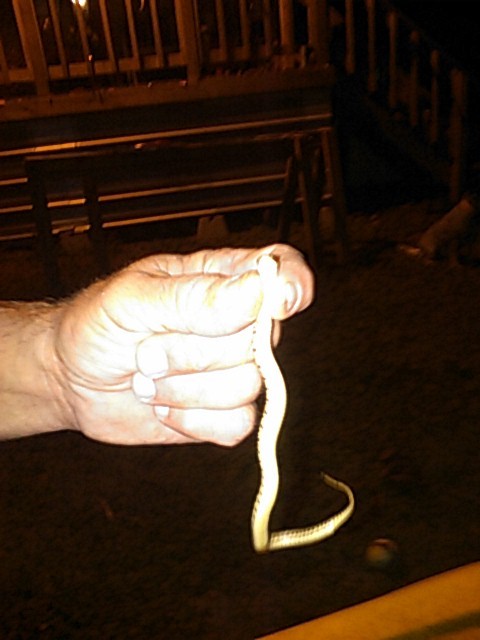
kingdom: Animalia
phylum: Chordata
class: Squamata
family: Colubridae
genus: Thamnophis
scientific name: Thamnophis marcianus
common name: Checkered garter snake
